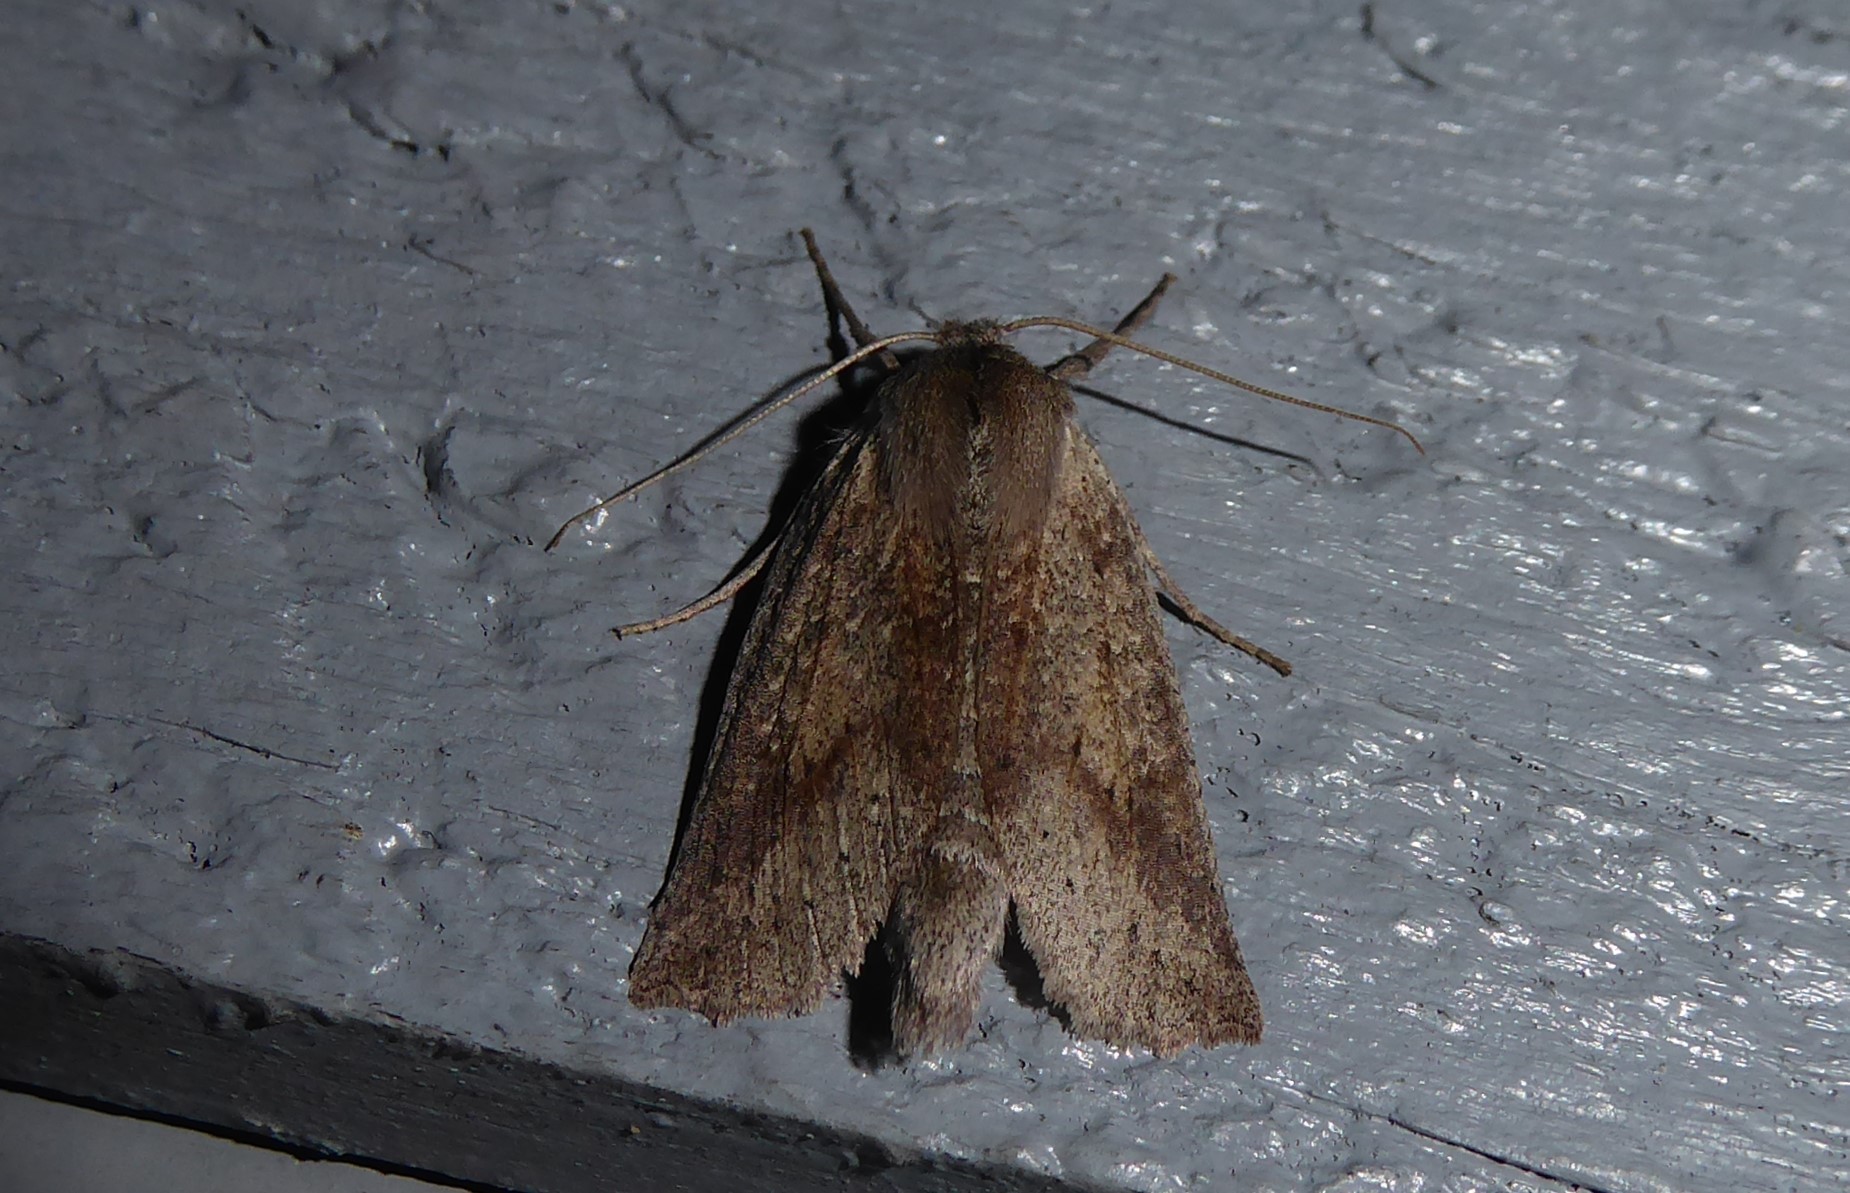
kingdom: Animalia
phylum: Arthropoda
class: Insecta
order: Lepidoptera
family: Geometridae
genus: Declana
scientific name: Declana leptomera
